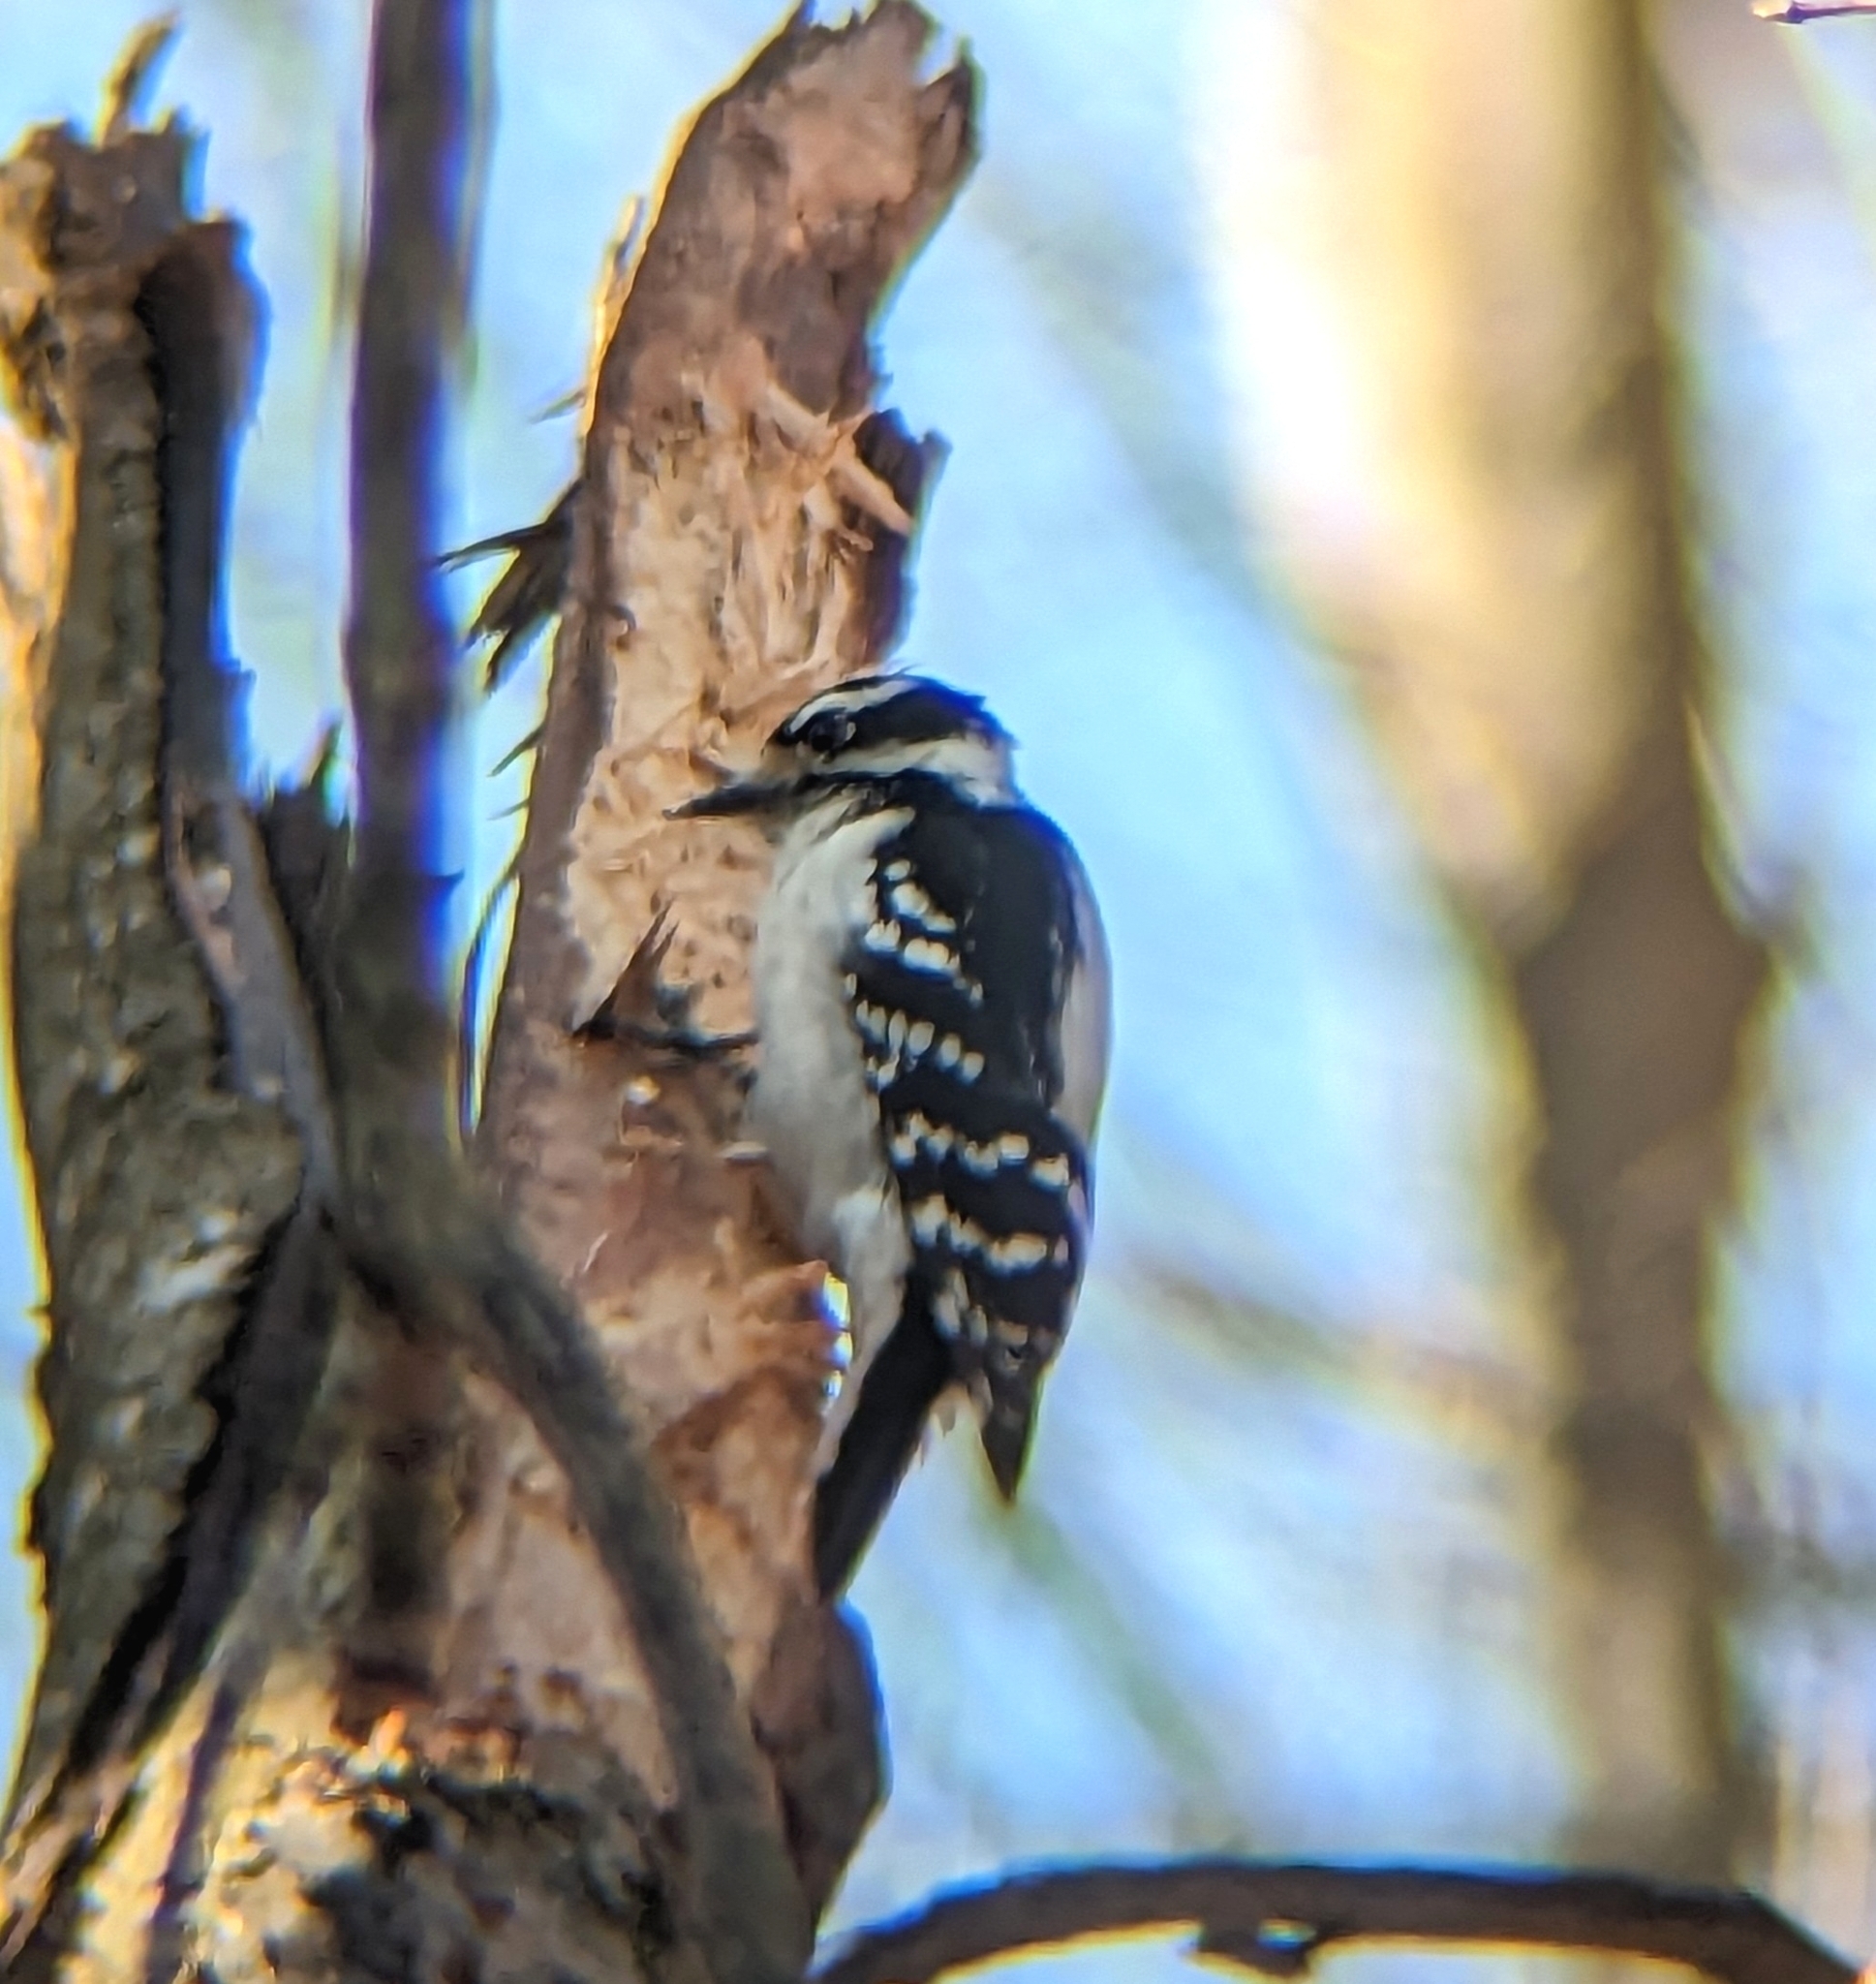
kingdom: Animalia
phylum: Chordata
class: Aves
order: Piciformes
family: Picidae
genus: Dryobates
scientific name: Dryobates pubescens
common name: Downy woodpecker
